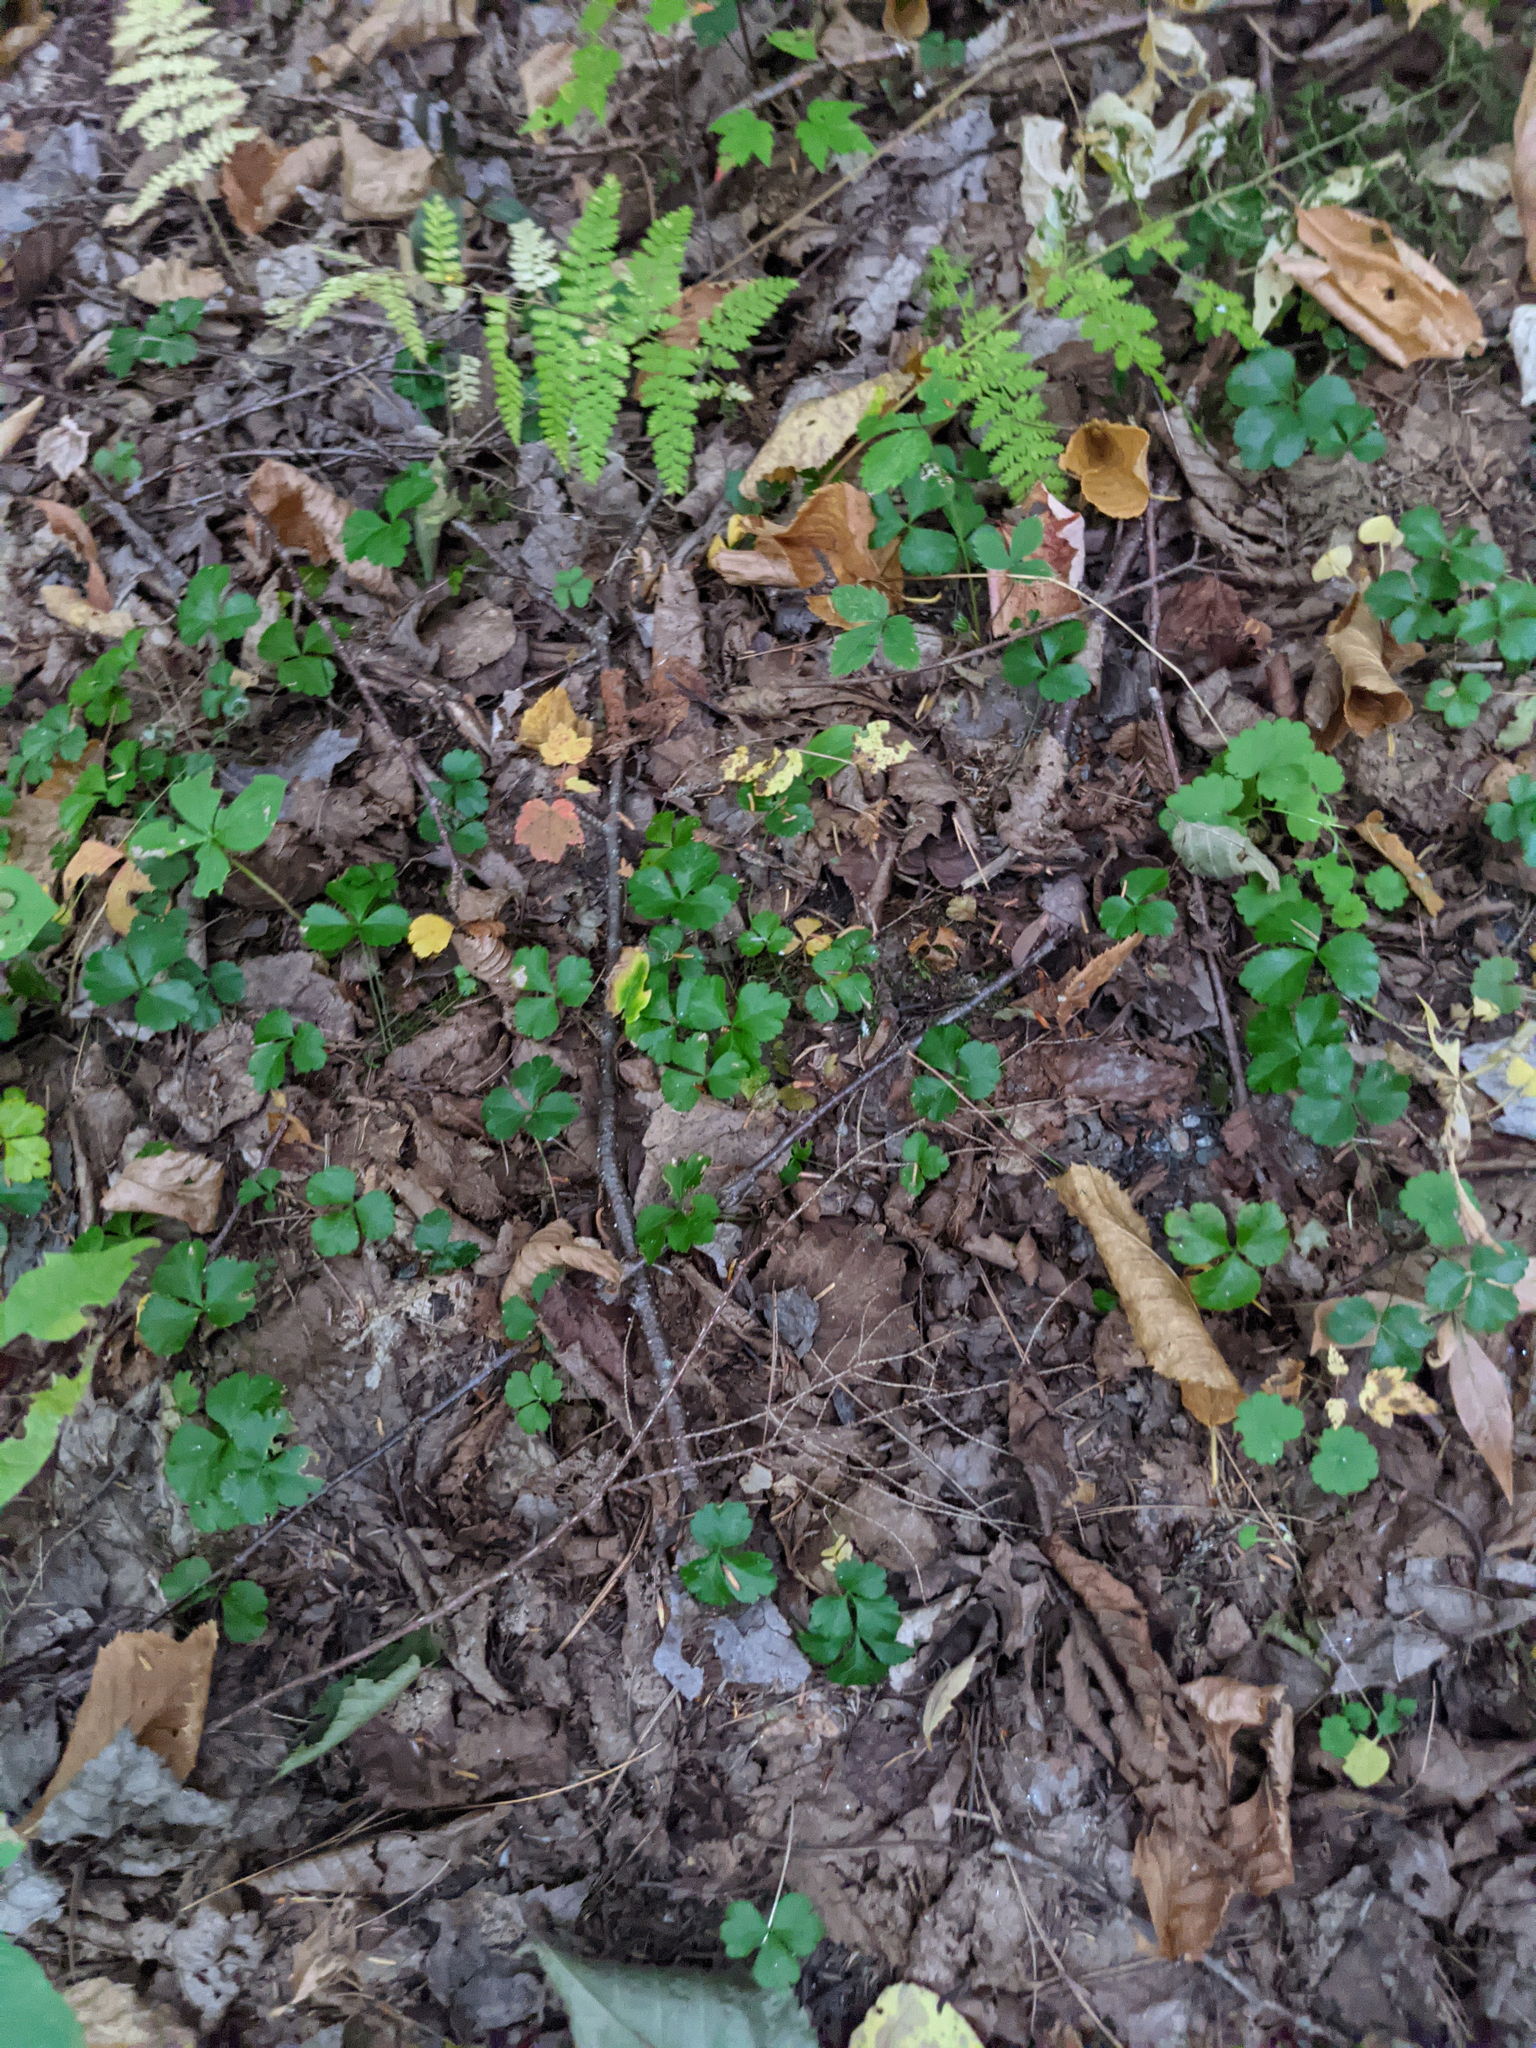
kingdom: Plantae
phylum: Tracheophyta
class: Magnoliopsida
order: Ranunculales
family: Ranunculaceae
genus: Coptis
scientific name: Coptis trifolia
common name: Canker-root
